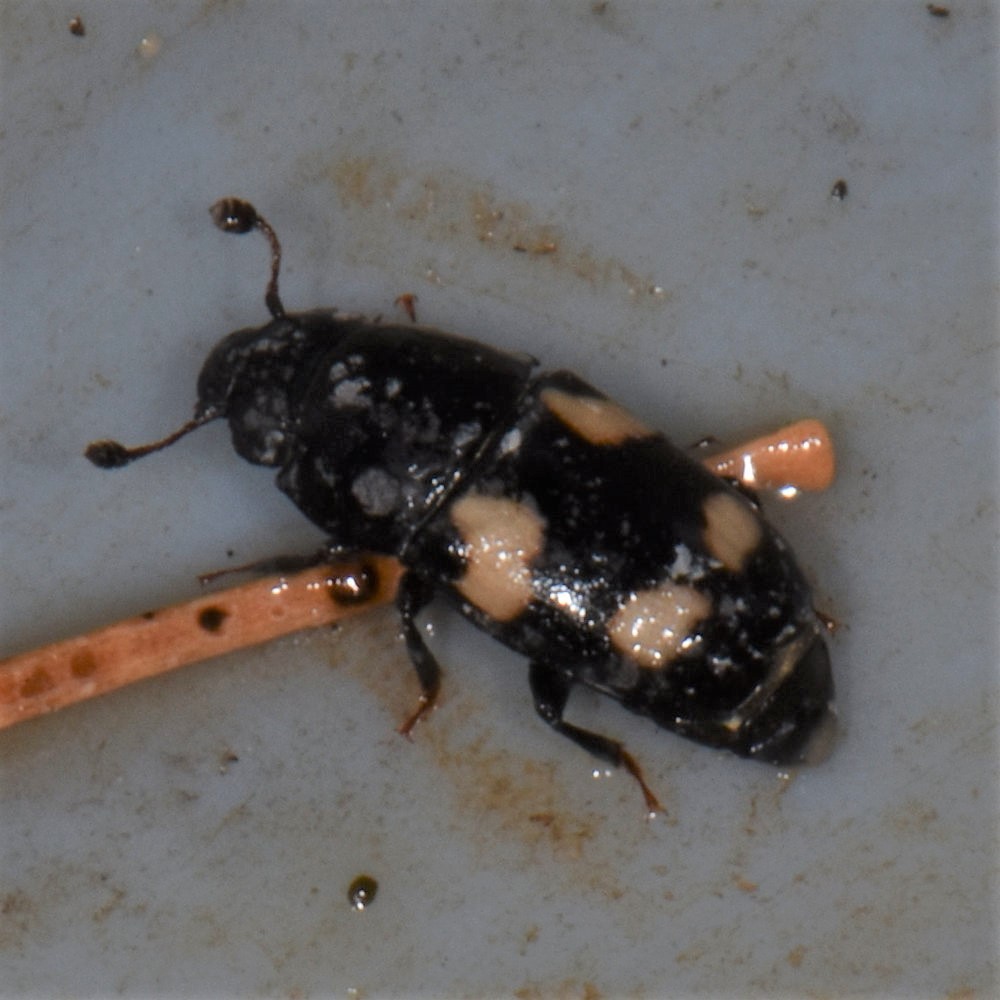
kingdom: Animalia
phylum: Arthropoda
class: Insecta
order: Coleoptera
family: Nitidulidae
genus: Glischrochilus
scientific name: Glischrochilus quadrisignatus
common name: Picnic beetle
